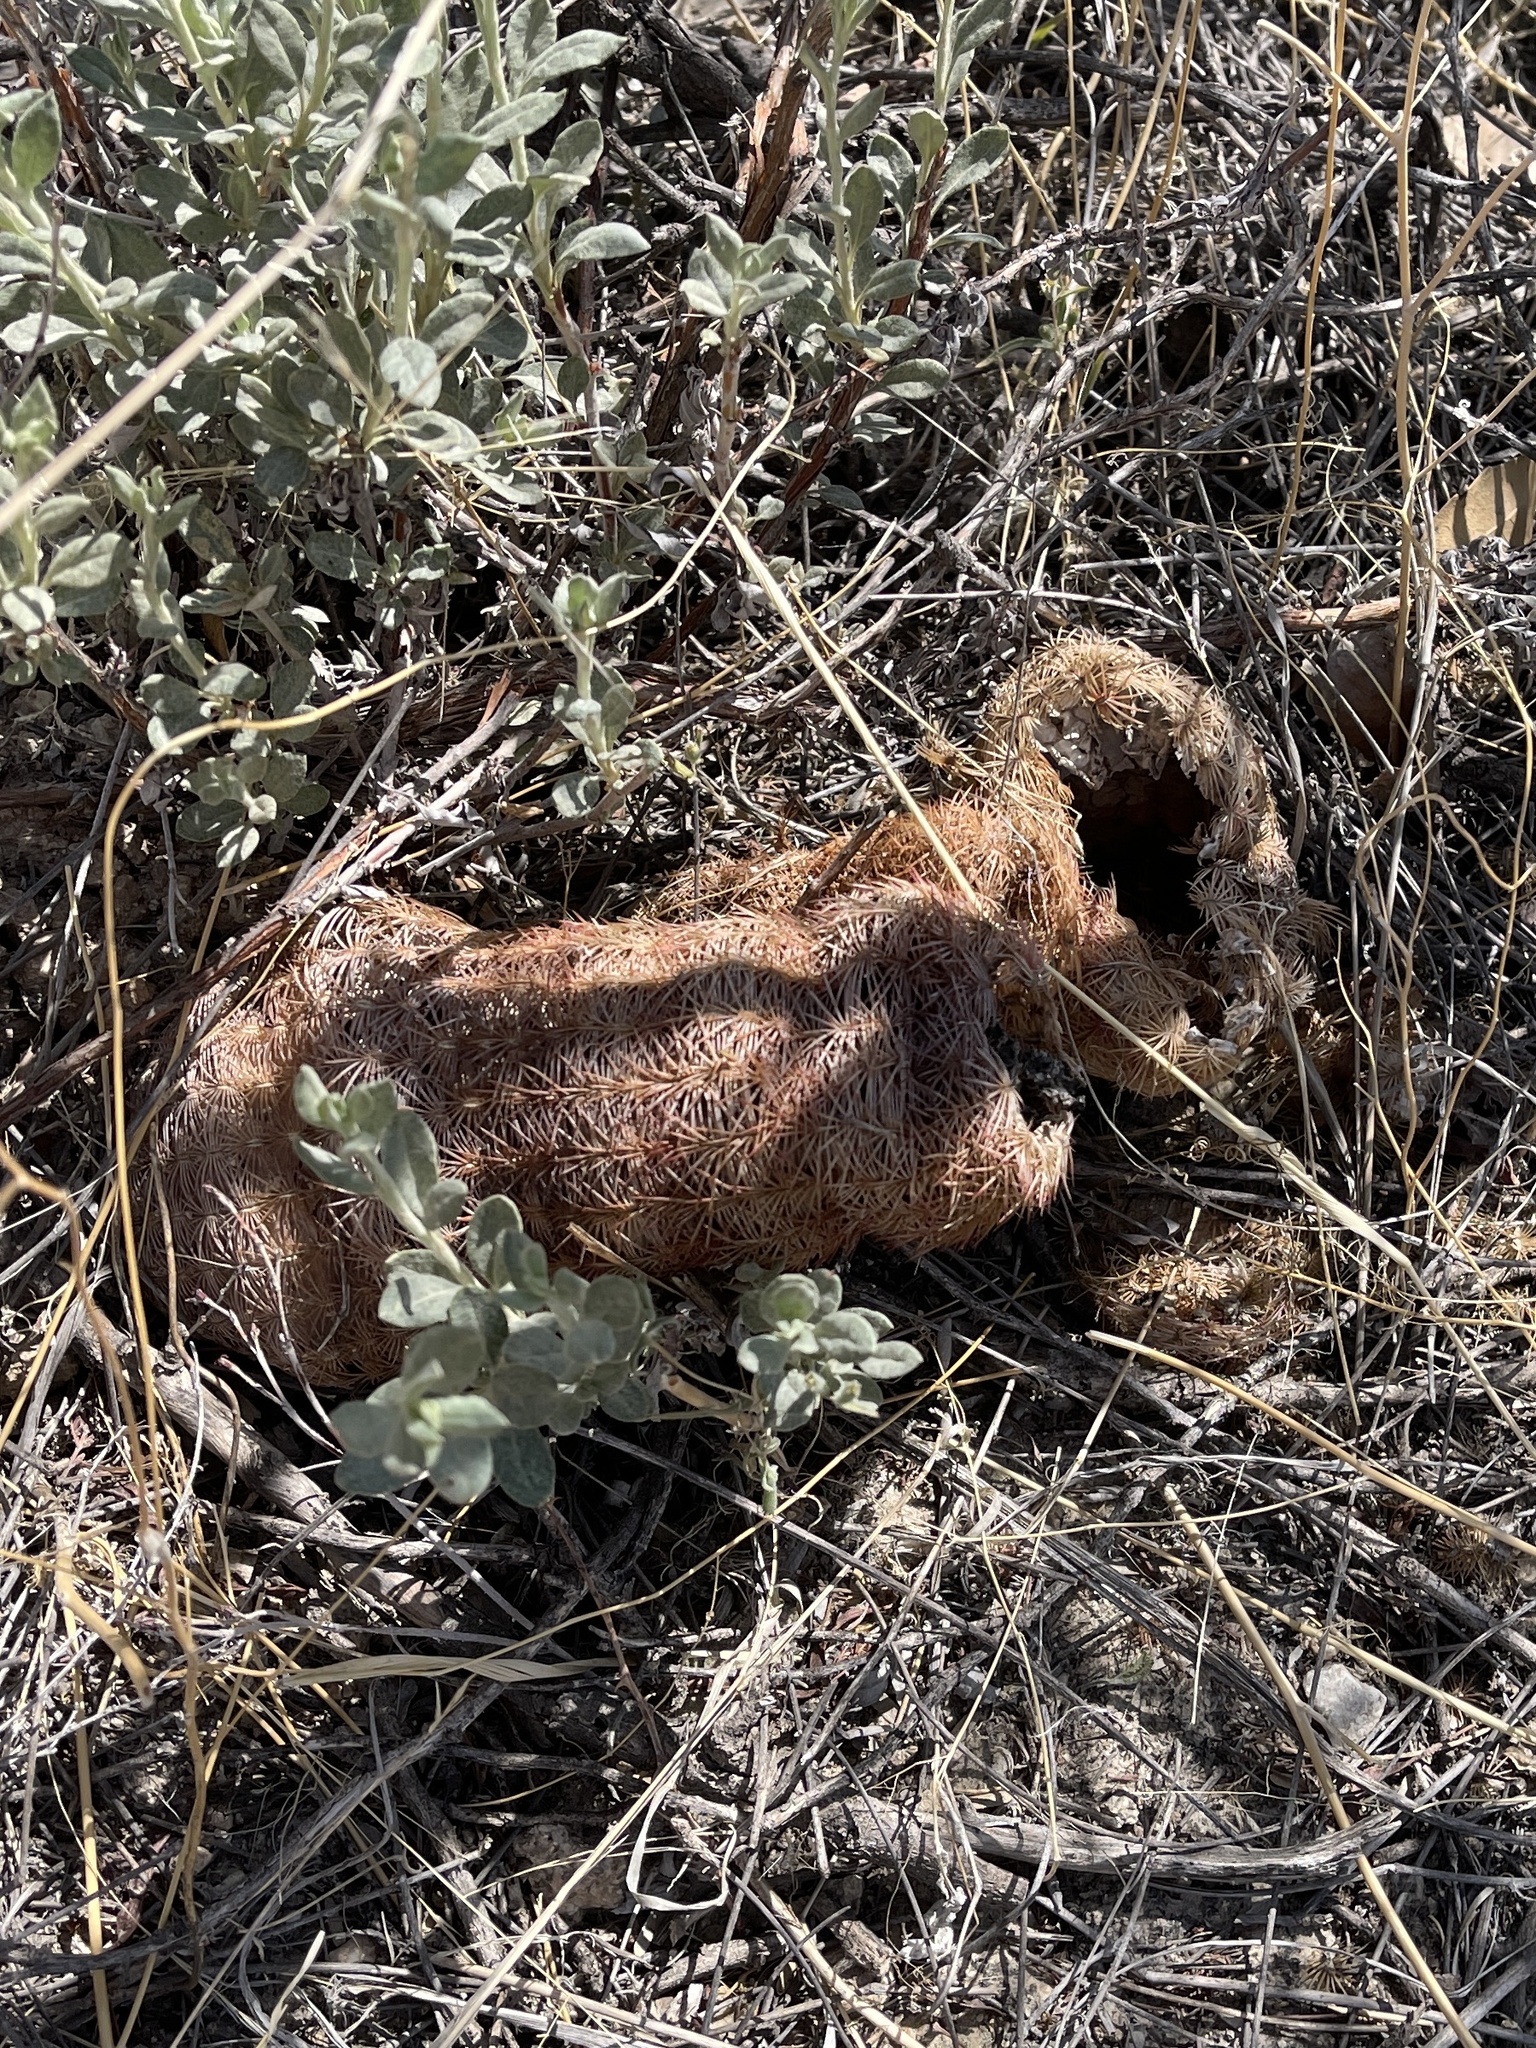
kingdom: Plantae
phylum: Tracheophyta
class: Magnoliopsida
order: Caryophyllales
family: Cactaceae
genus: Echinocereus
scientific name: Echinocereus rigidissimus
